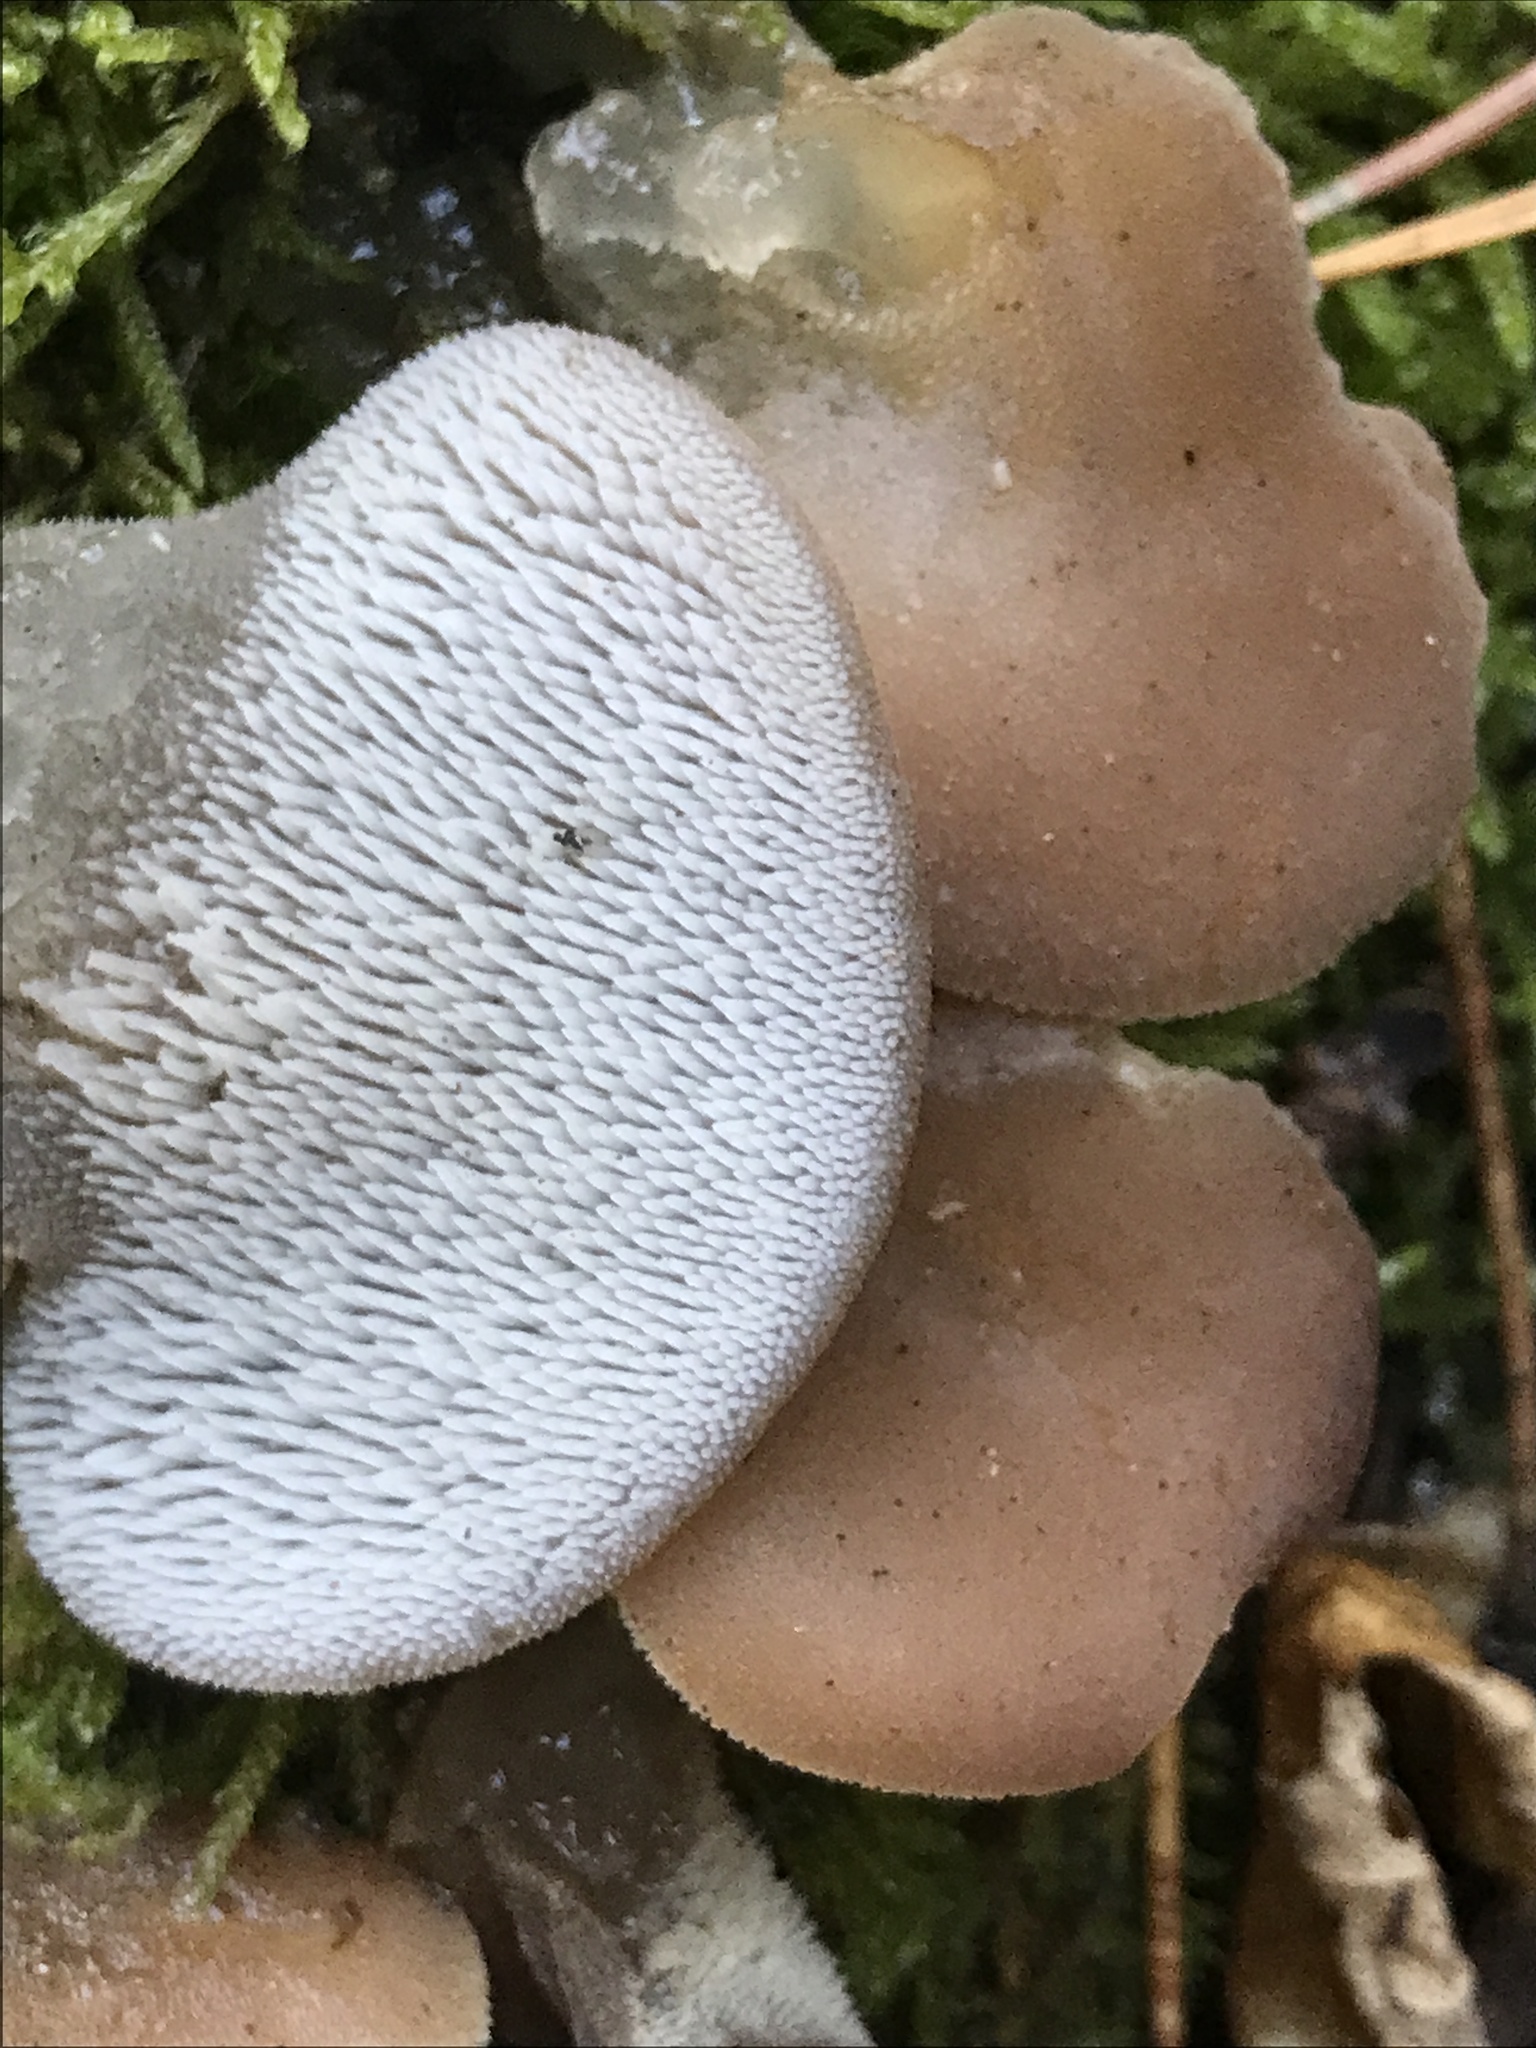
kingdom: Fungi
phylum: Basidiomycota
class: Agaricomycetes
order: Auriculariales
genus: Pseudohydnum
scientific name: Pseudohydnum gelatinosum
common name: Jelly tongue
